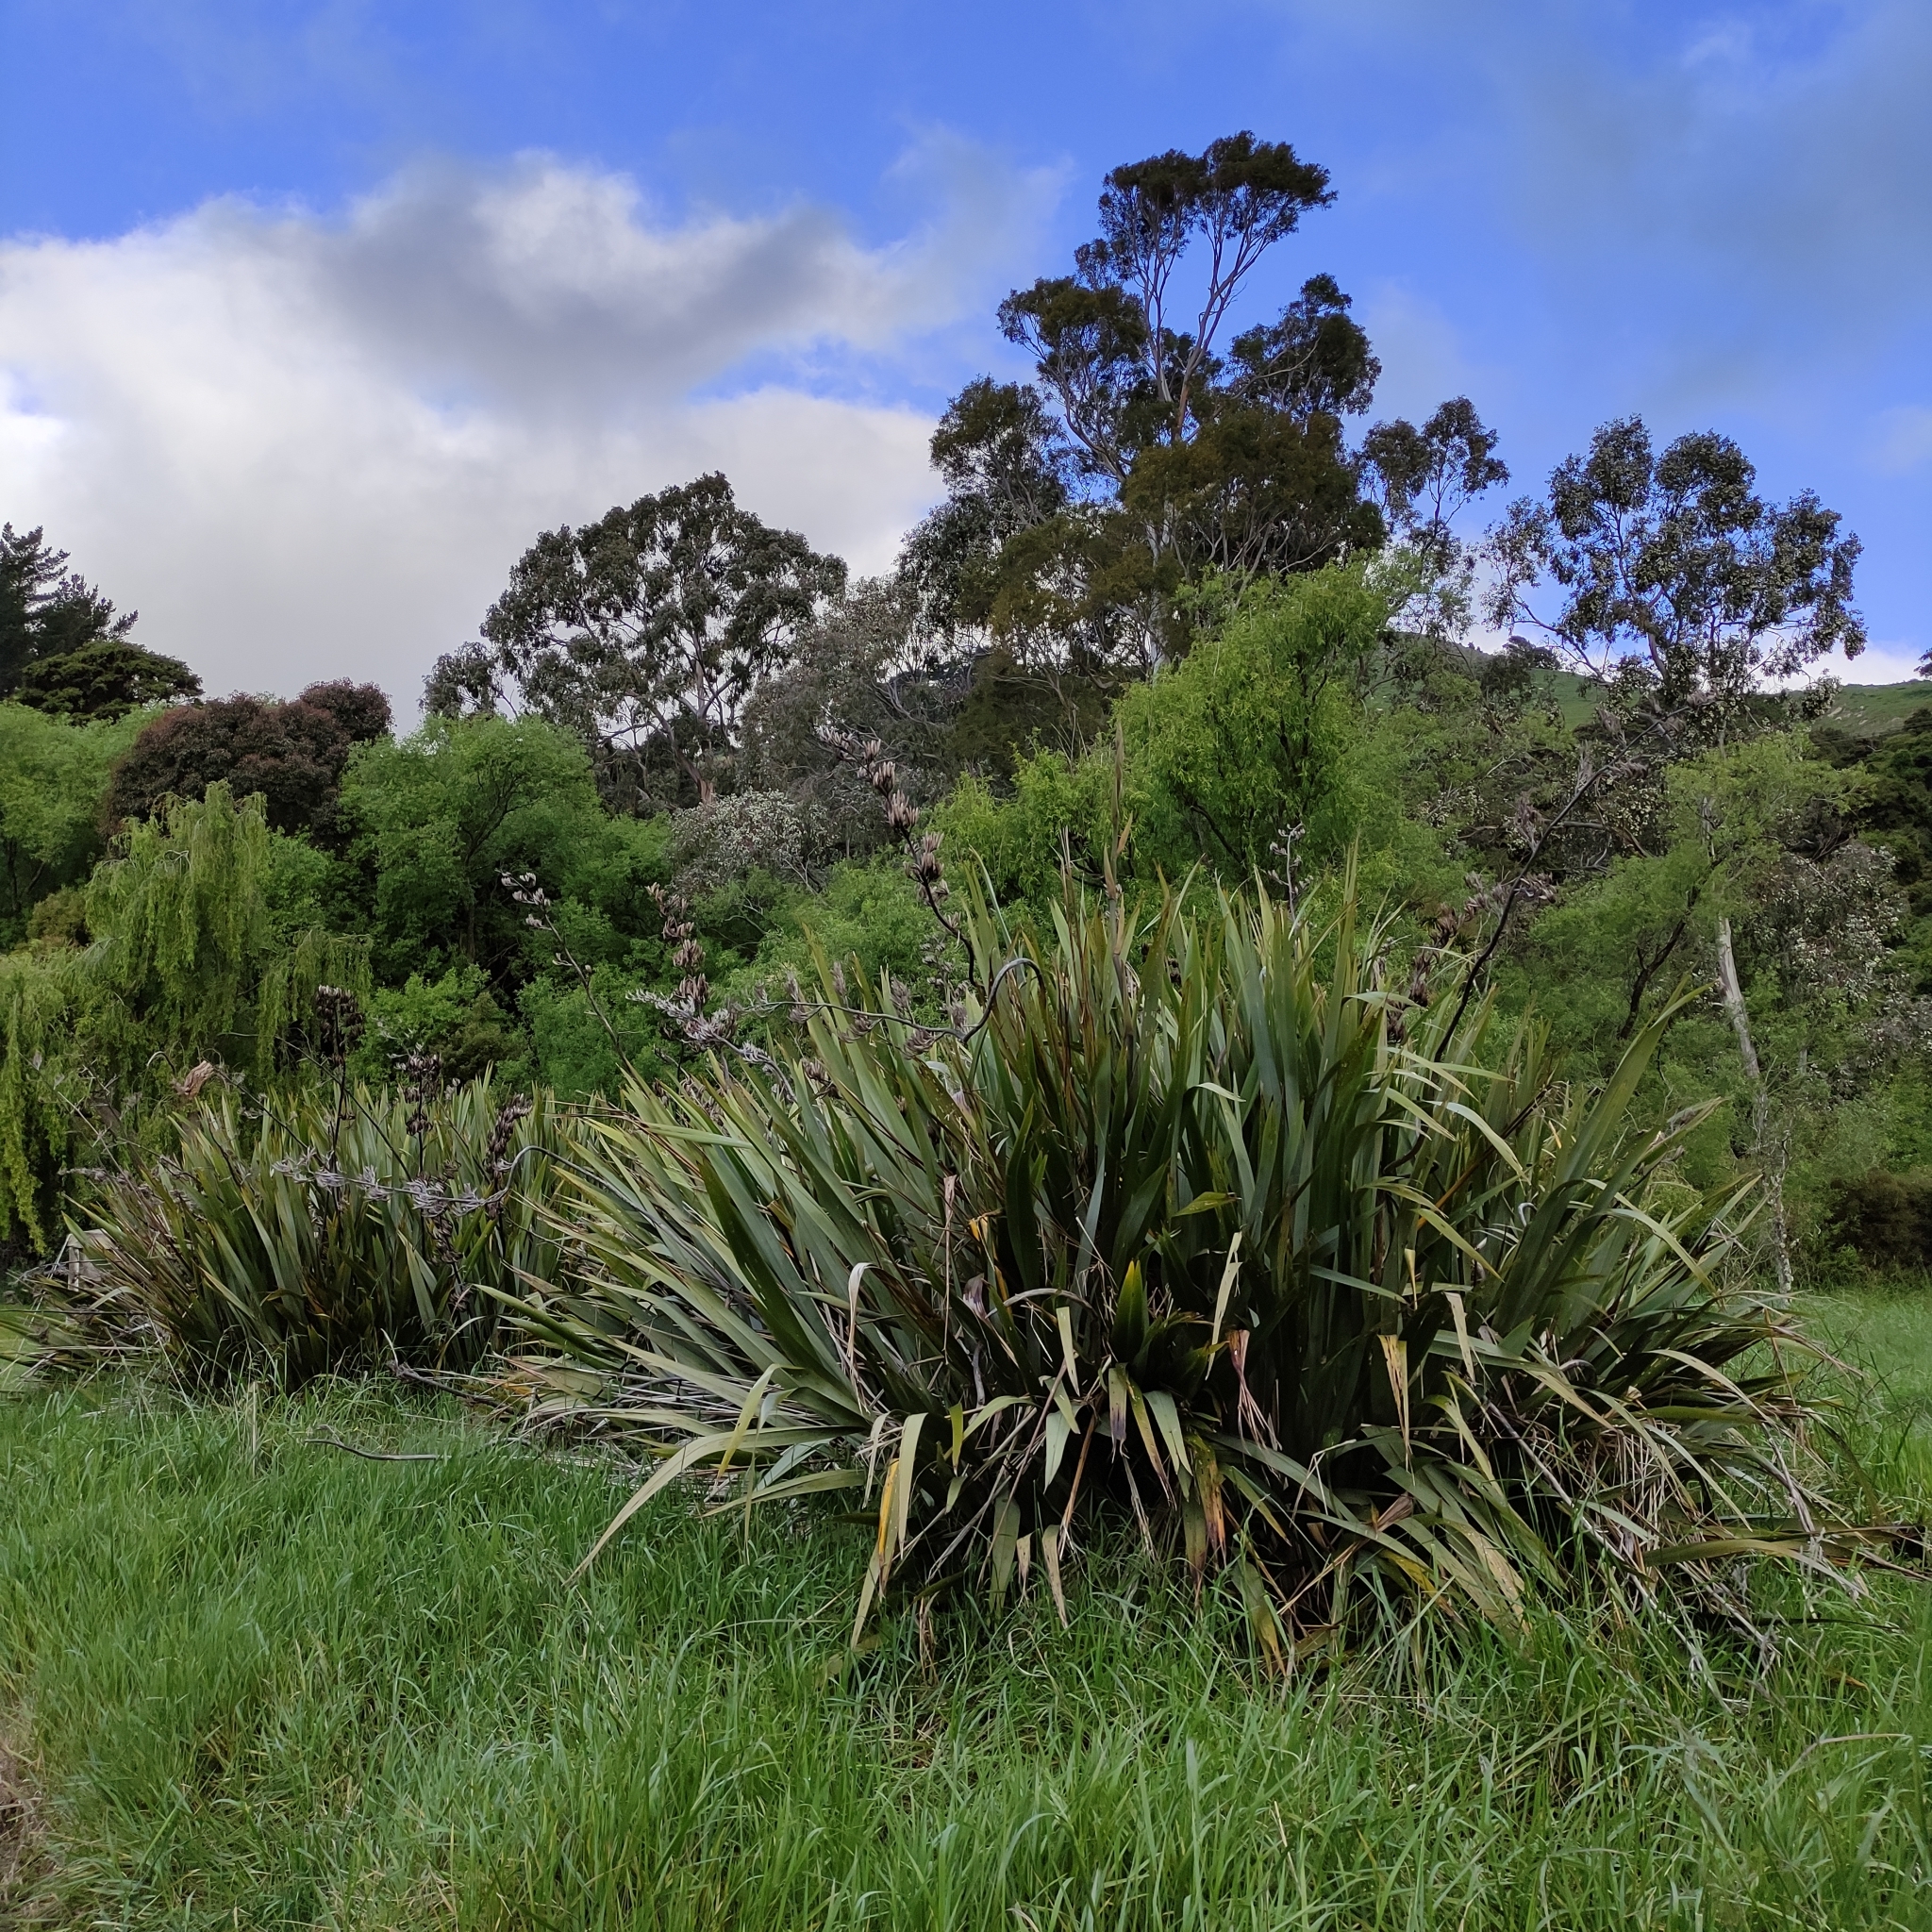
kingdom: Plantae
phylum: Tracheophyta
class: Liliopsida
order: Asparagales
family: Asphodelaceae
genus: Phormium
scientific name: Phormium tenax
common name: New zealand flax
